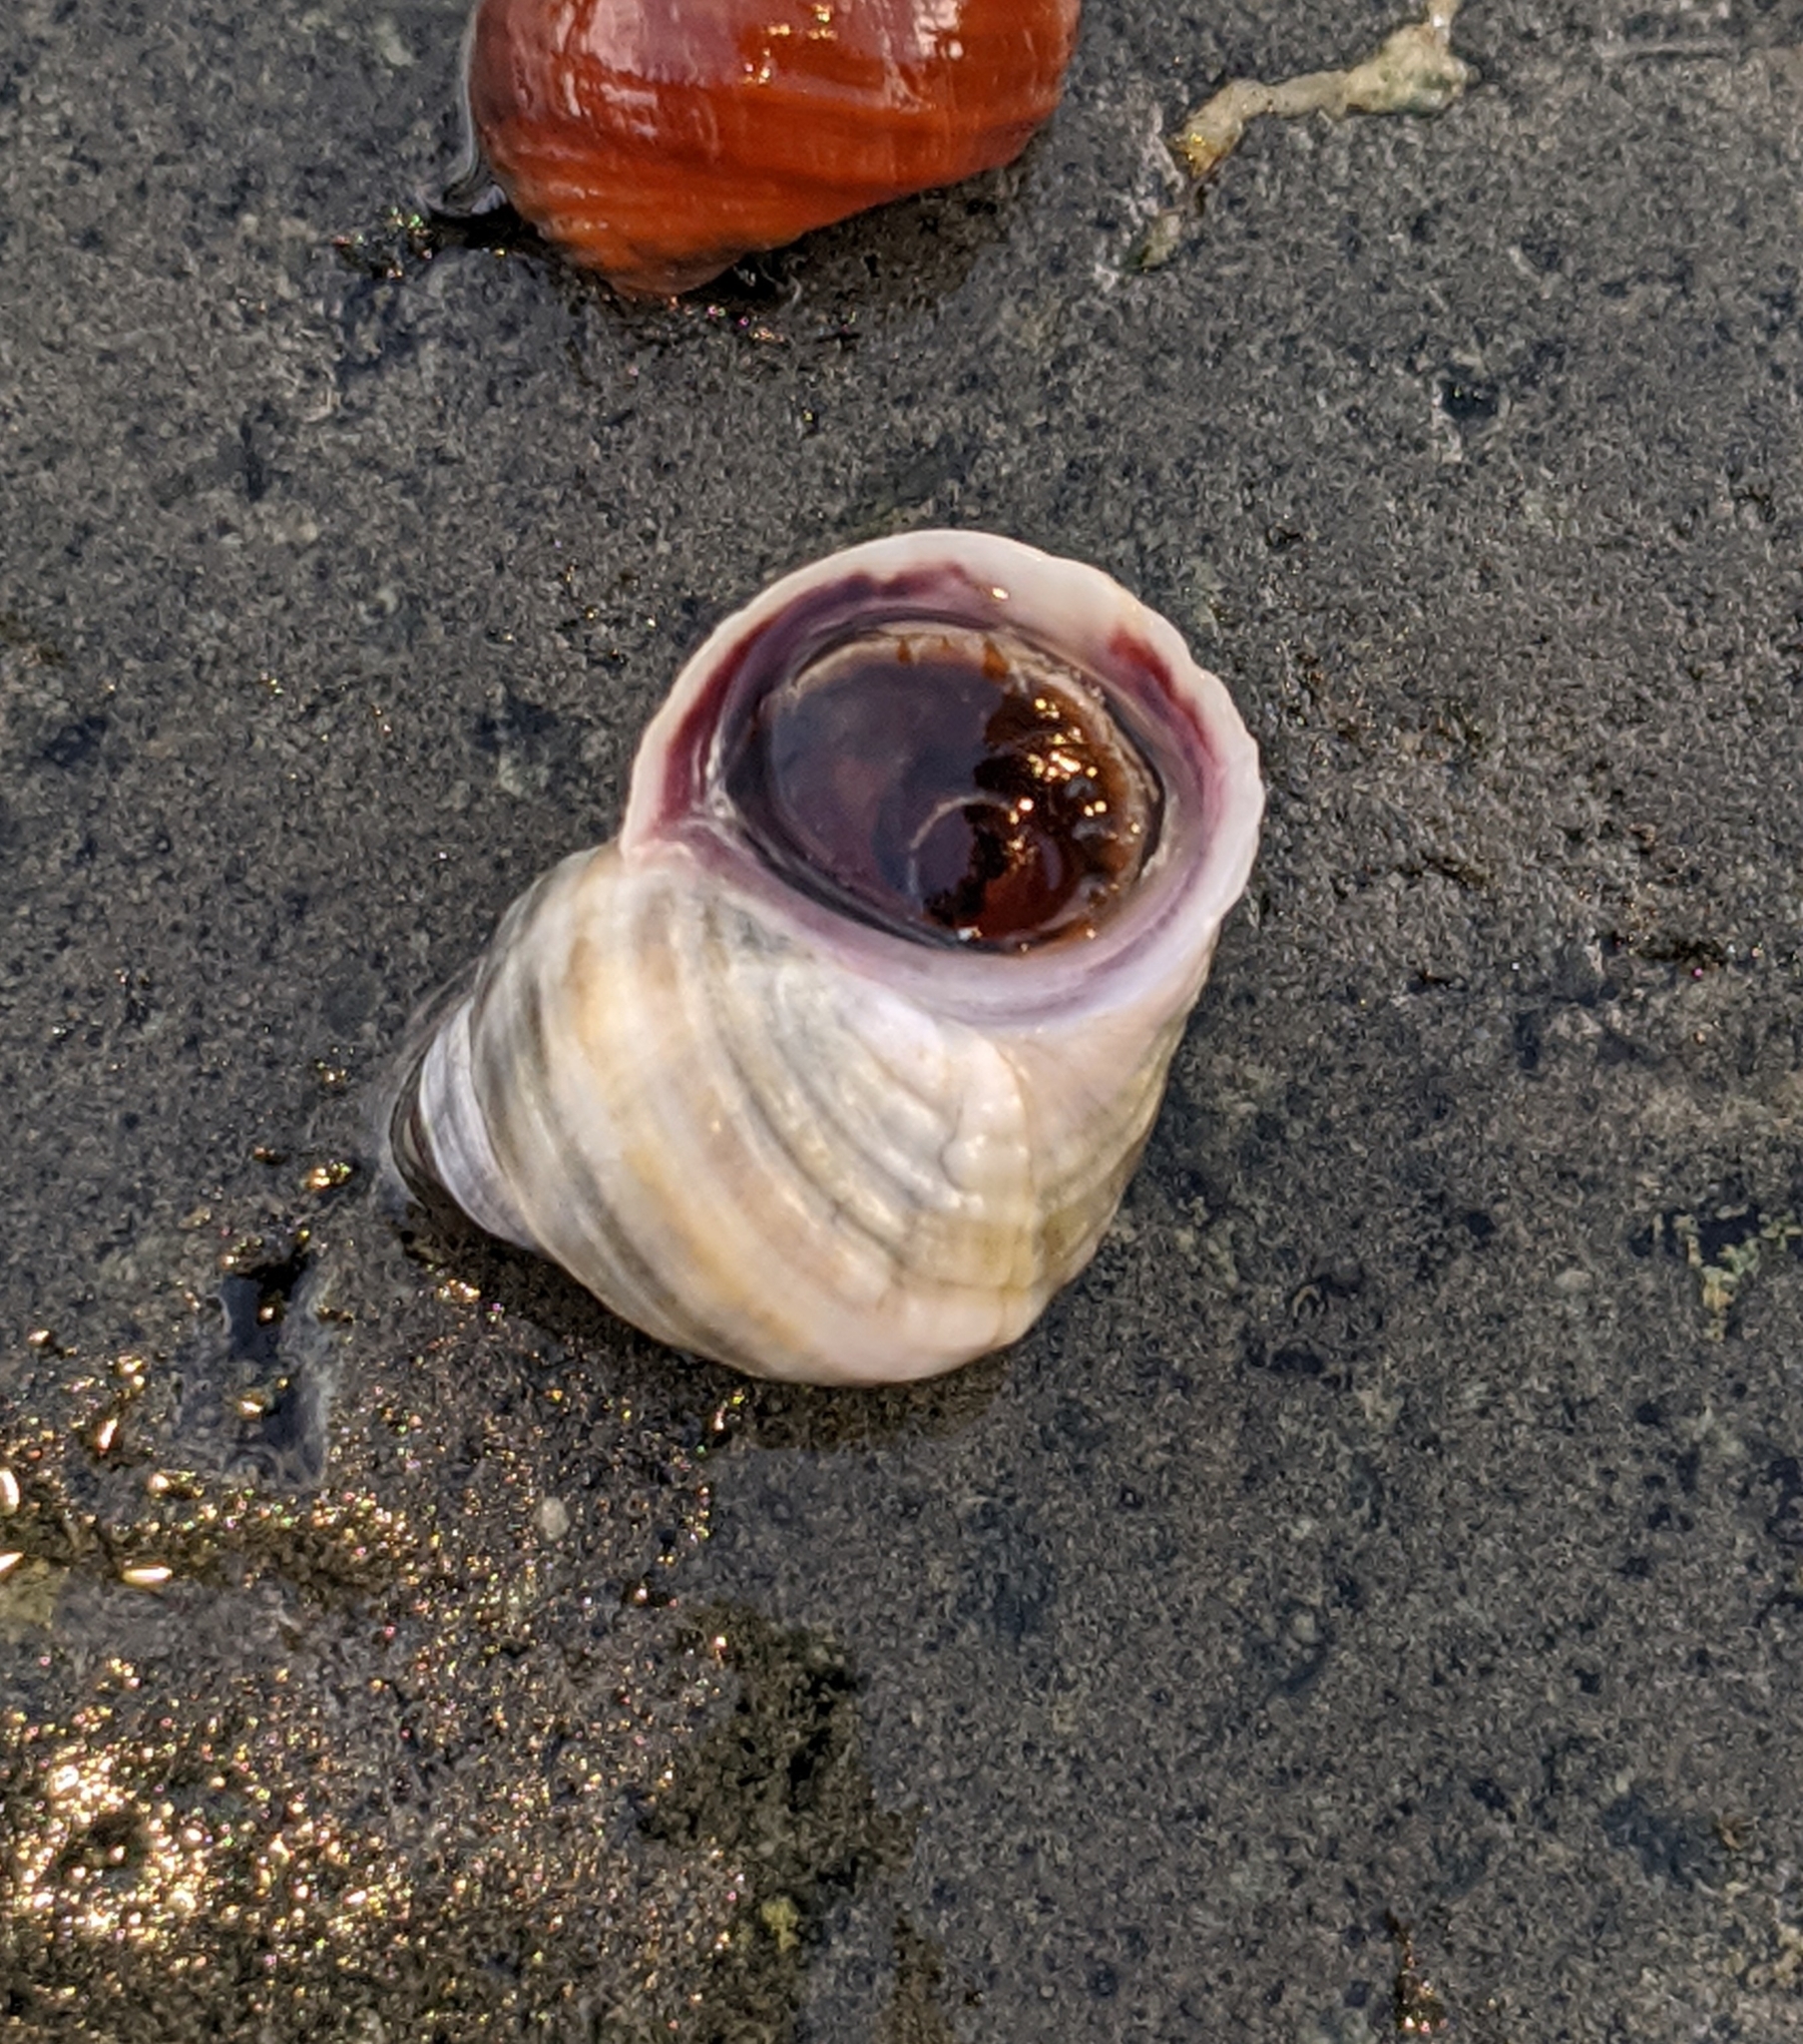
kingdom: Animalia
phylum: Mollusca
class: Gastropoda
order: Littorinimorpha
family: Littorinidae
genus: Littorina
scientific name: Littorina sitkana
